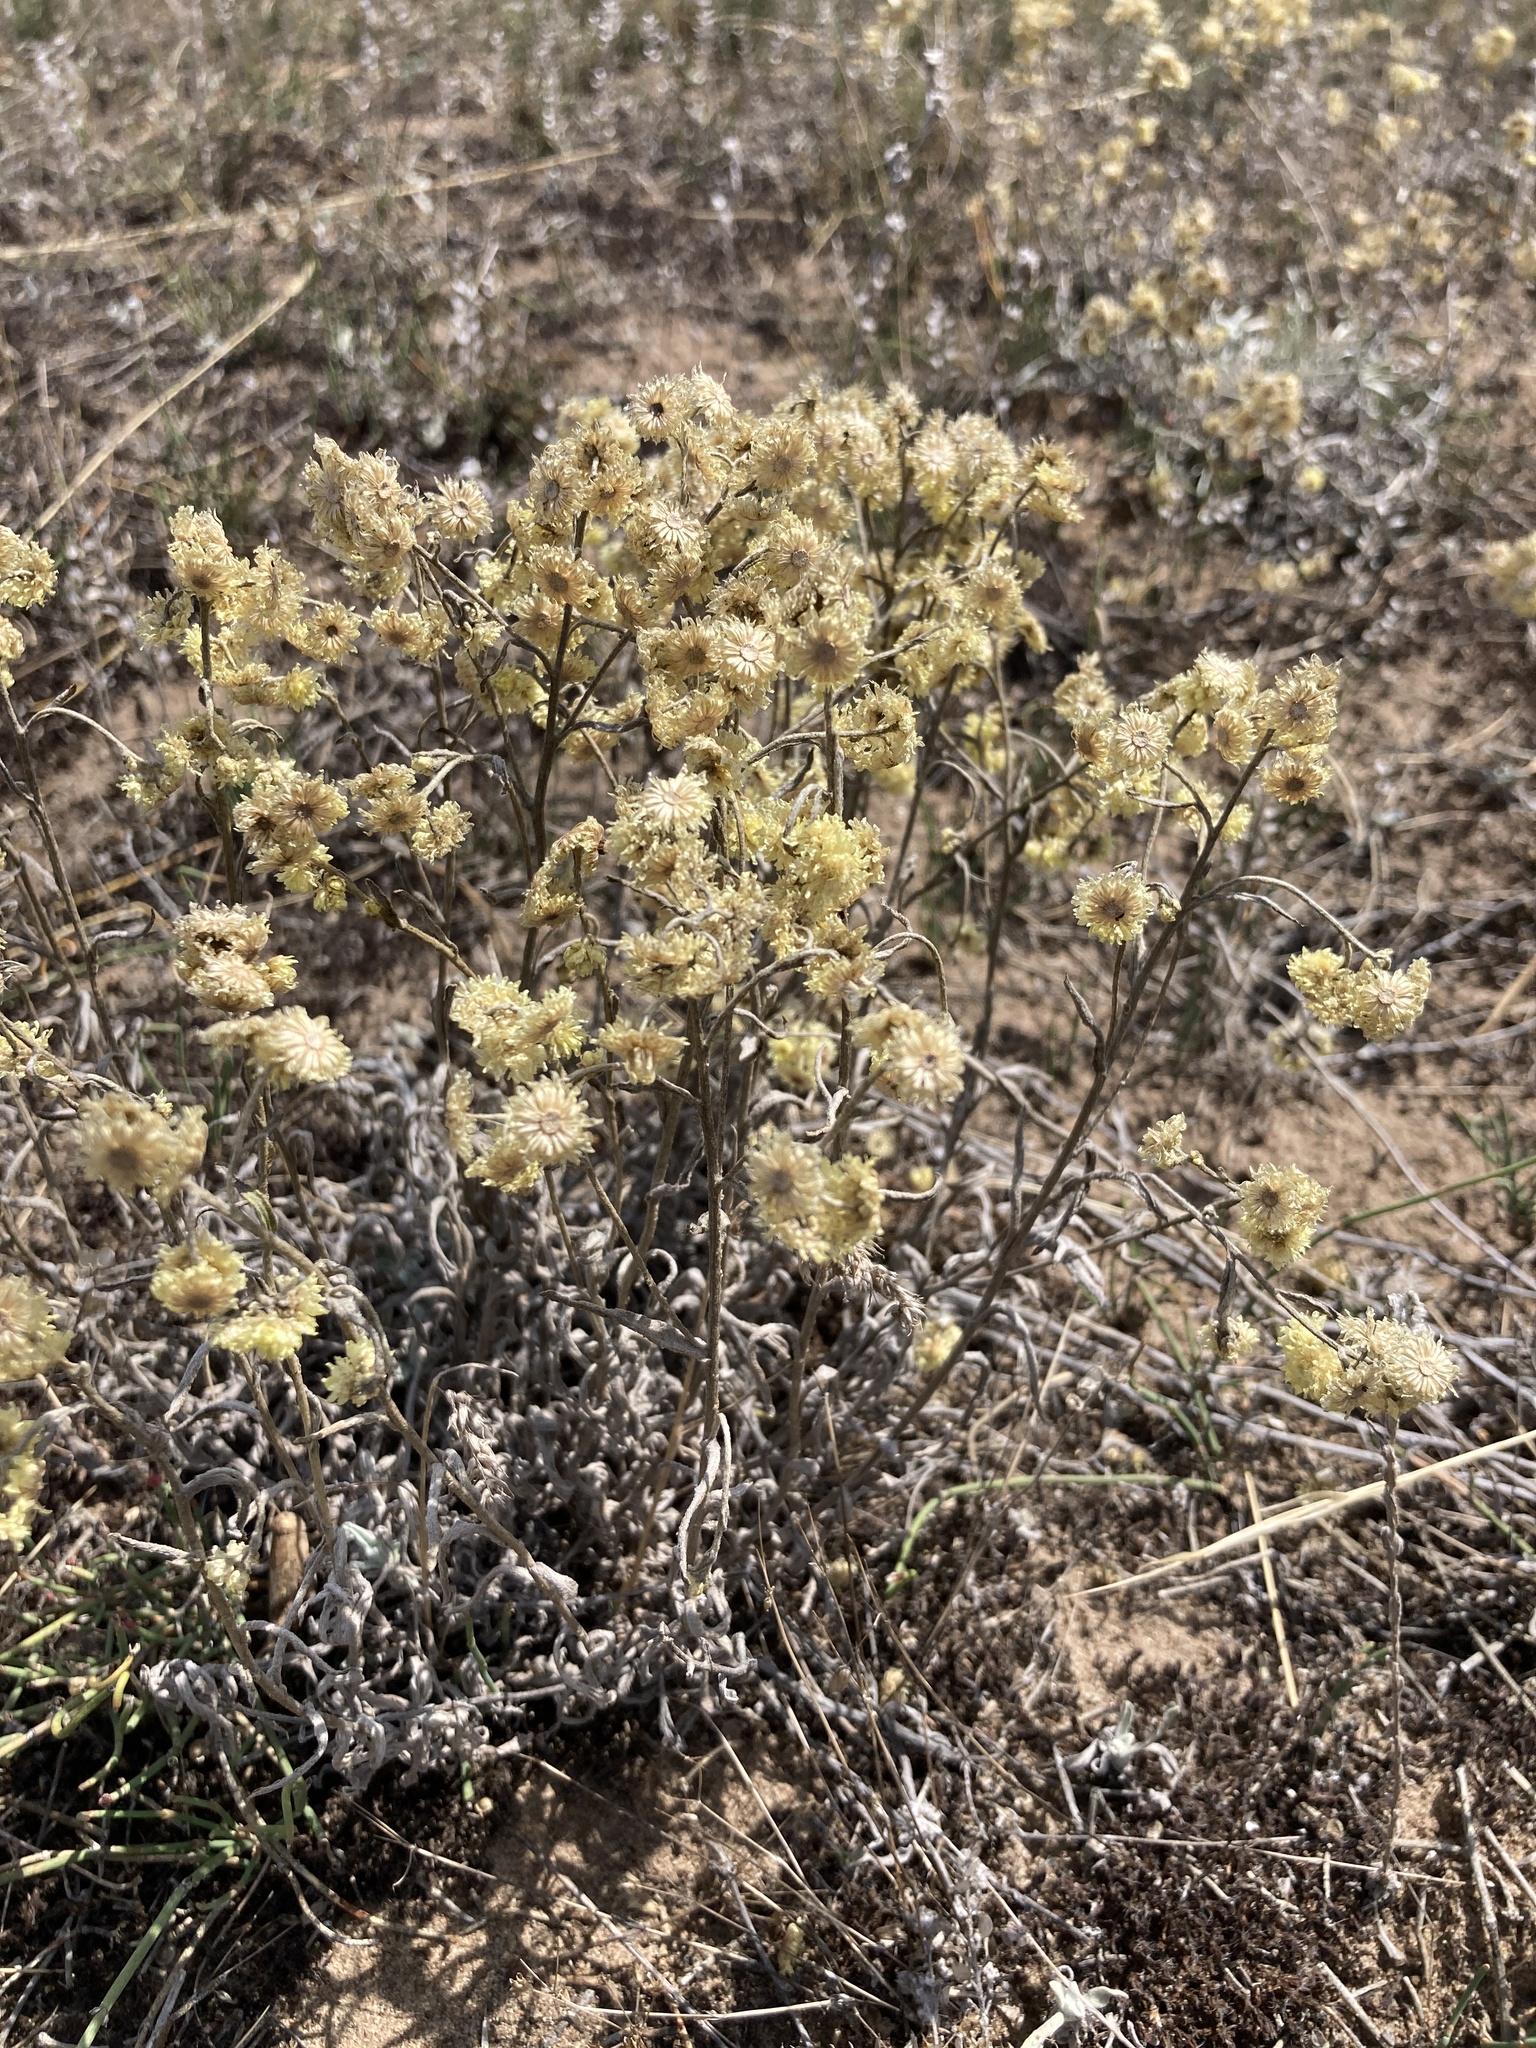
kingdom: Plantae
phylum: Tracheophyta
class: Magnoliopsida
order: Asterales
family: Asteraceae
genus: Helichrysum
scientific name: Helichrysum arenarium
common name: Strawflower
